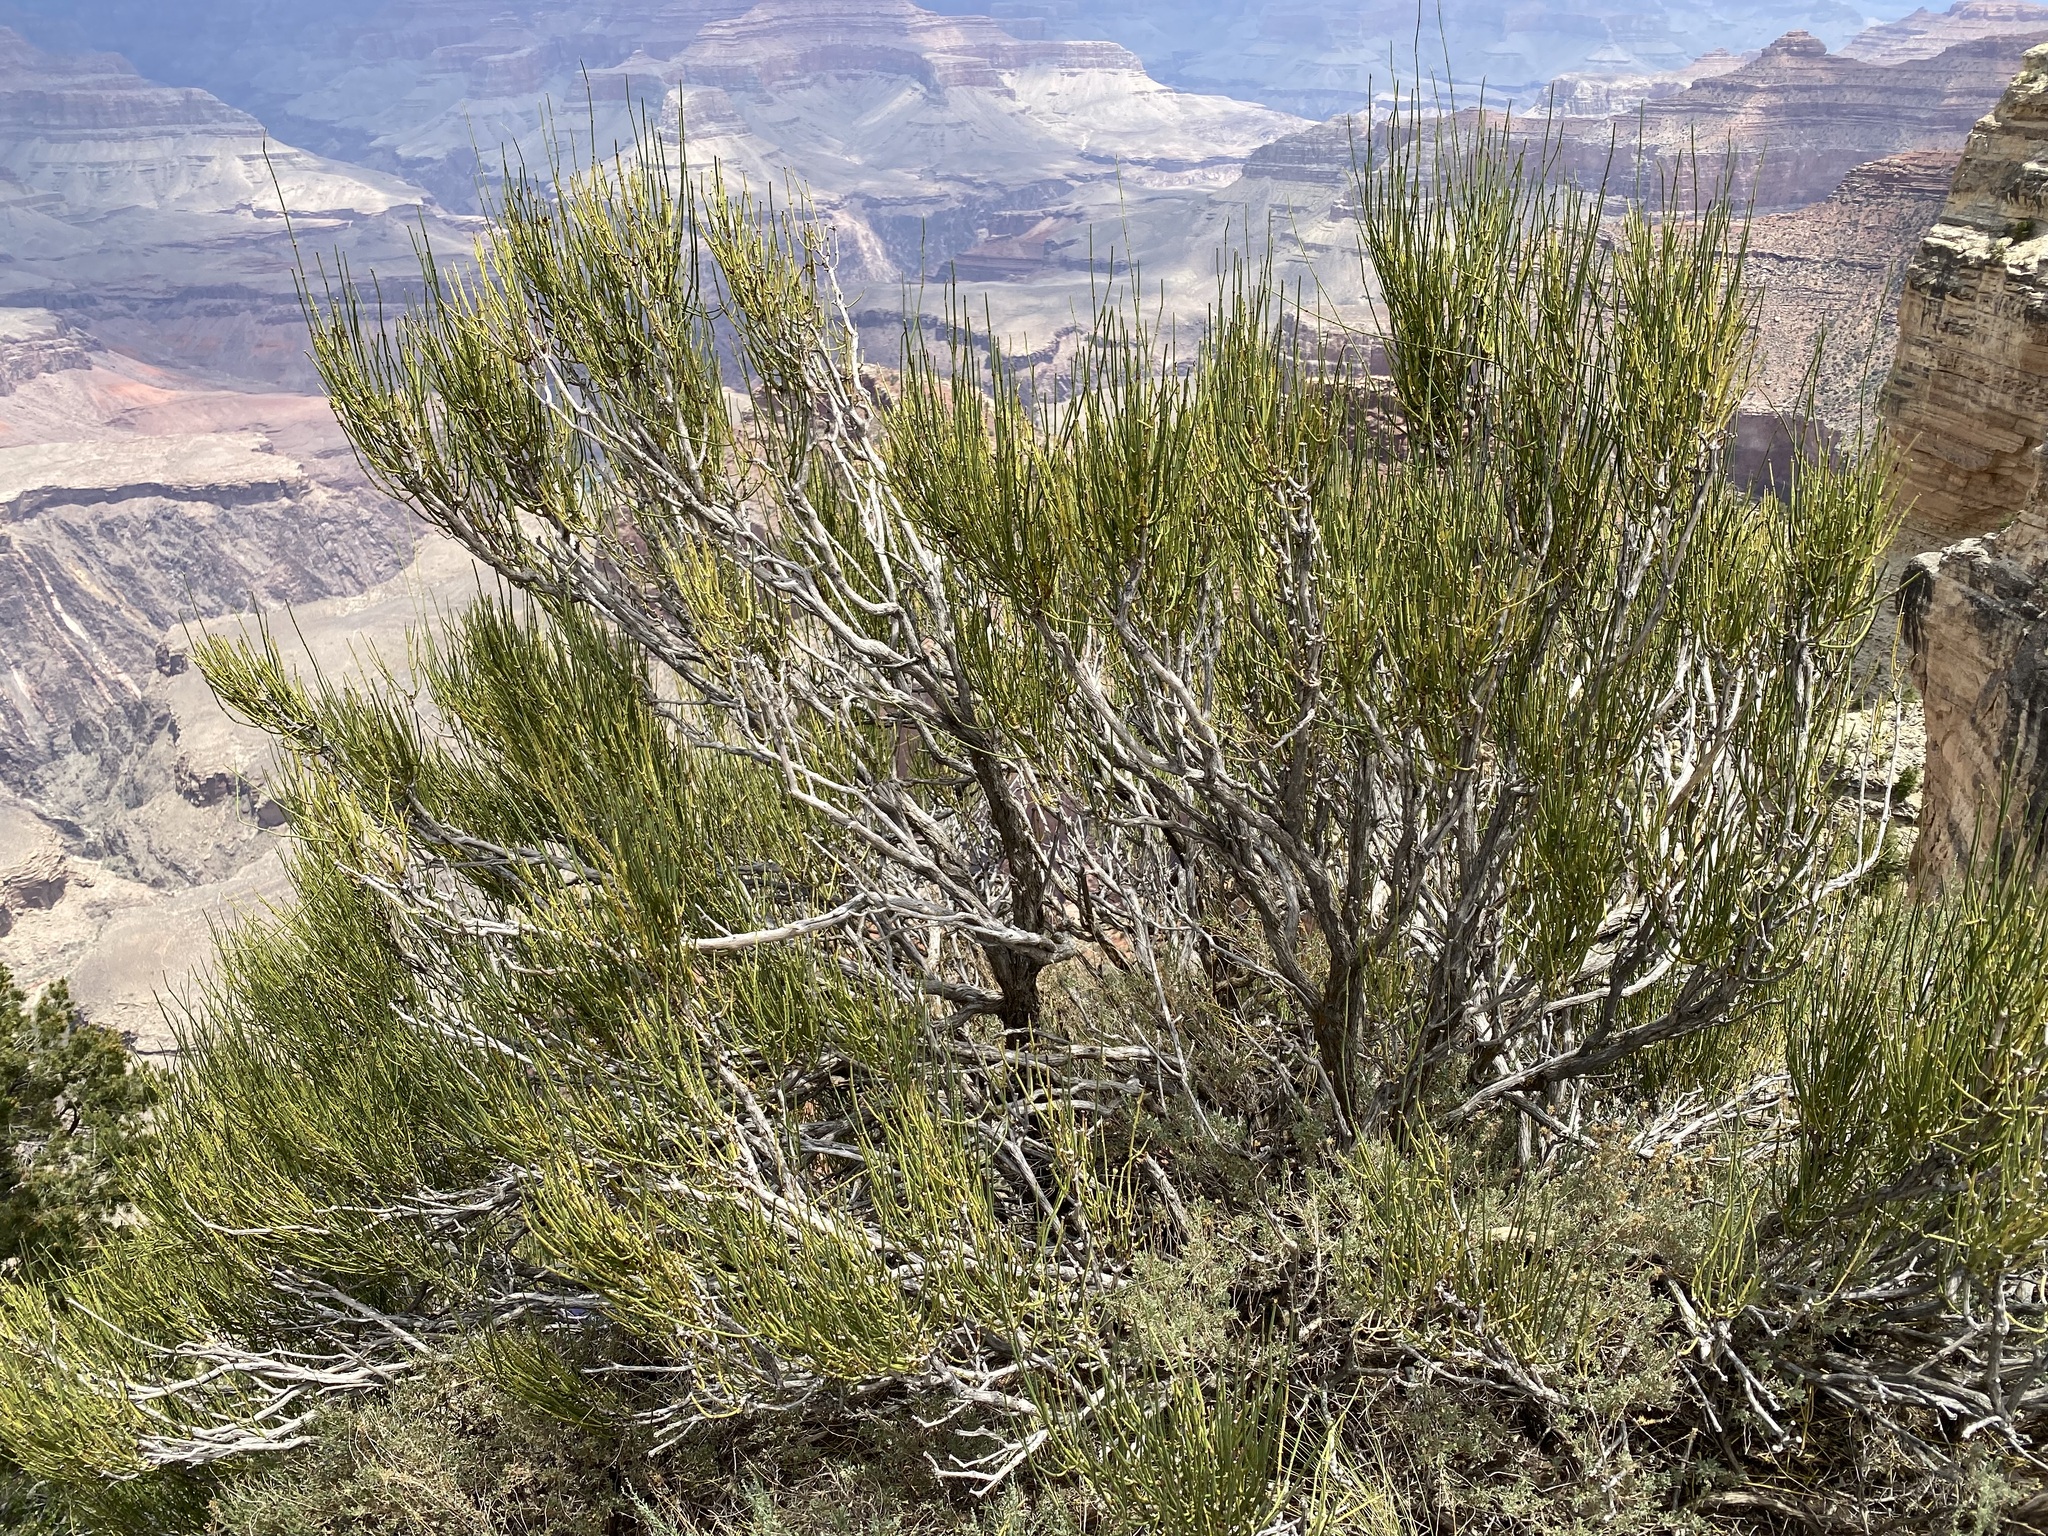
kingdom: Plantae
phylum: Tracheophyta
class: Gnetopsida
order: Ephedrales
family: Ephedraceae
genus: Ephedra
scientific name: Ephedra viridis
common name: Green ephedra
